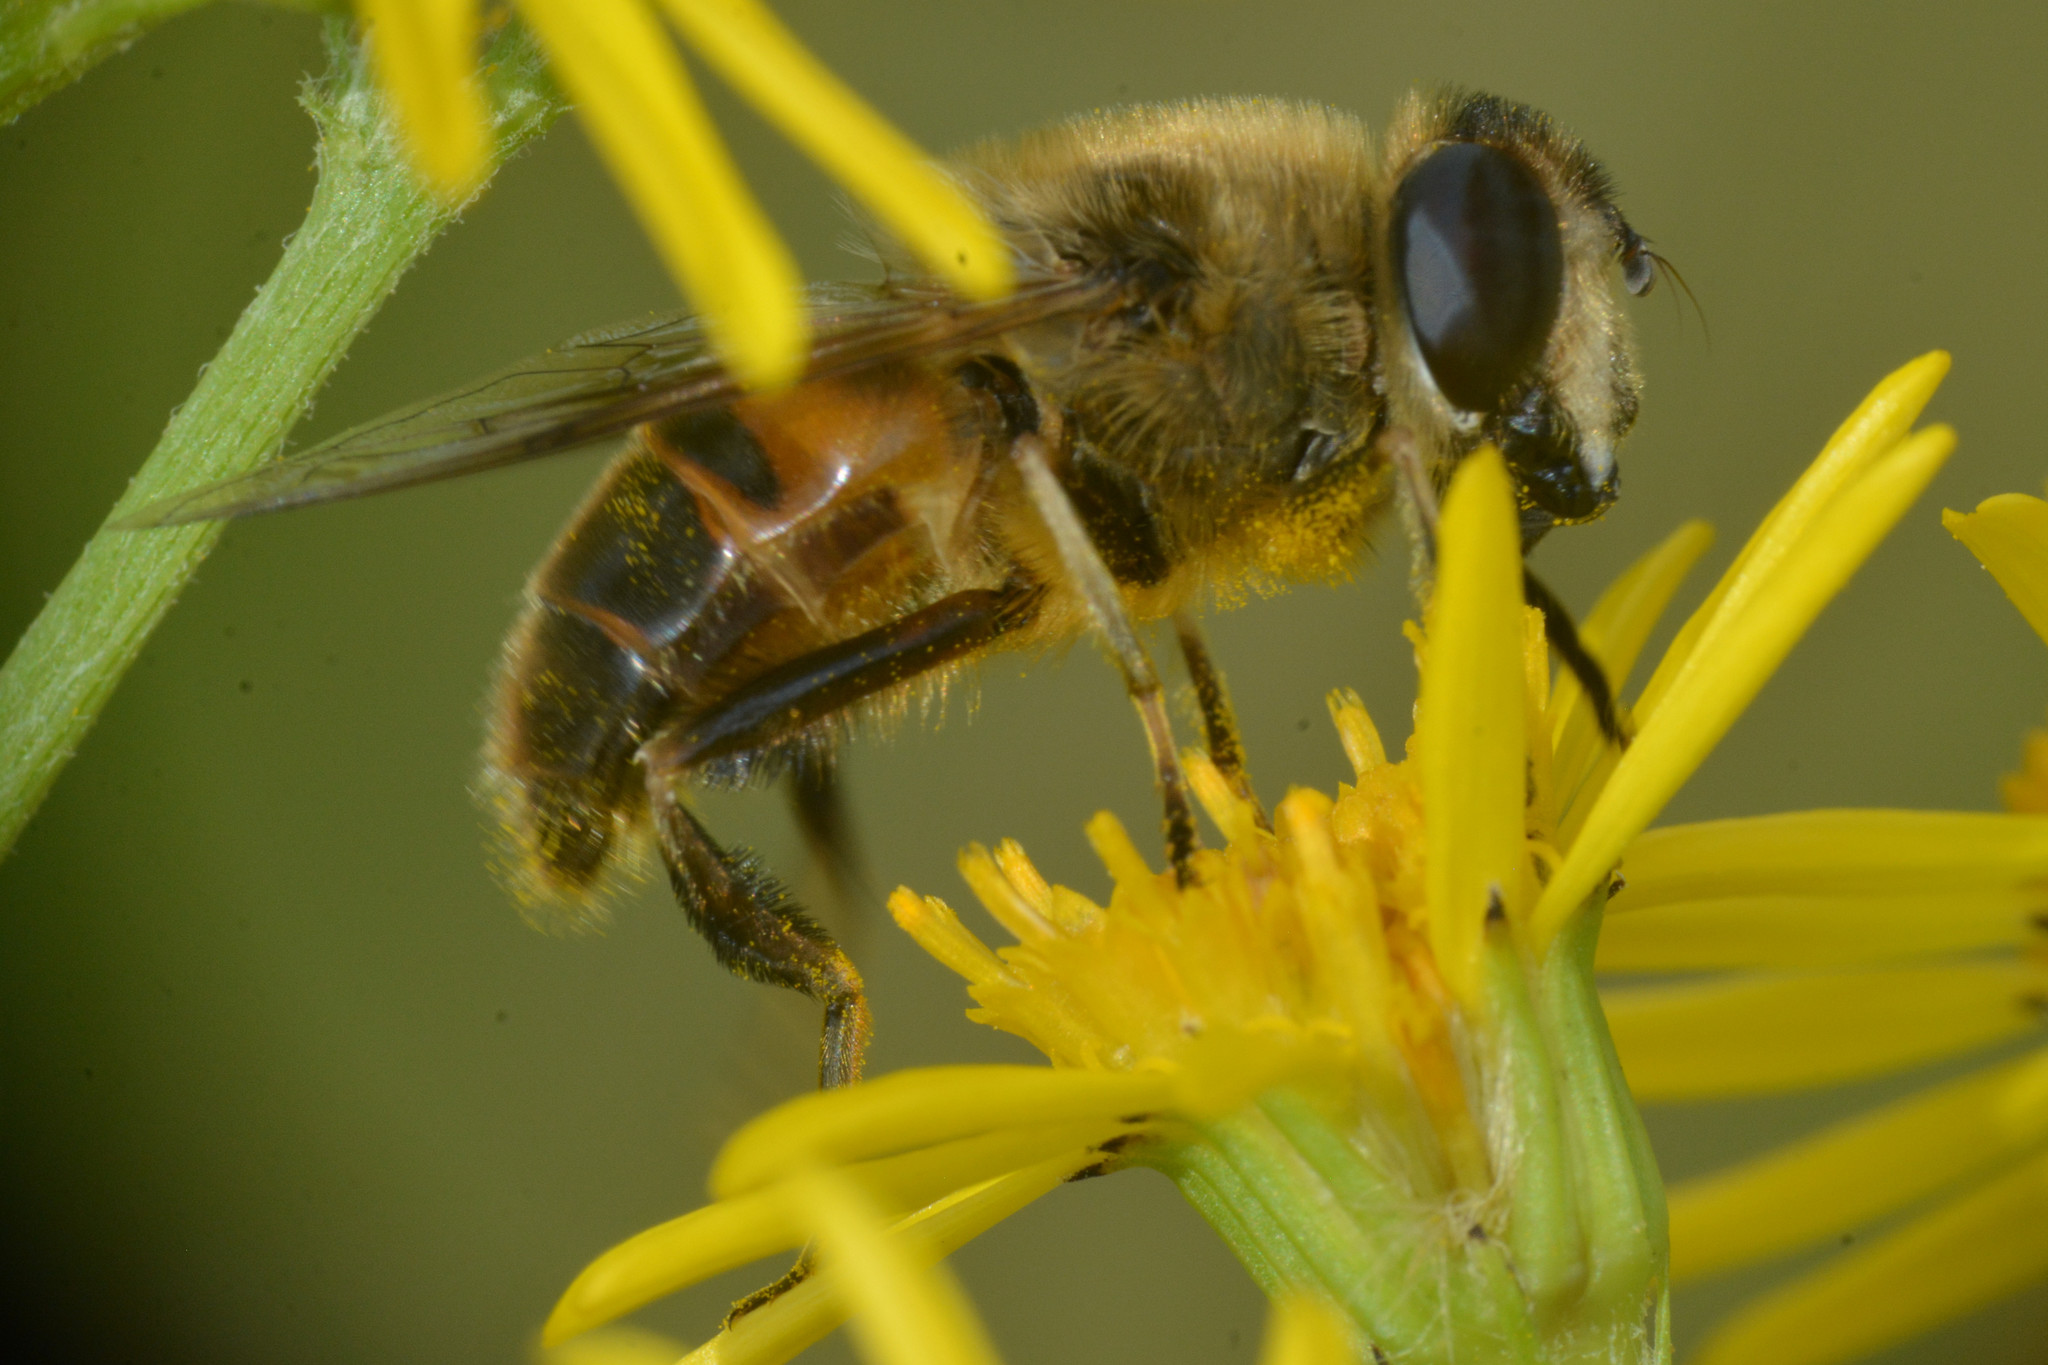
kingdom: Animalia
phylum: Arthropoda
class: Insecta
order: Diptera
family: Syrphidae
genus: Eristalis
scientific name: Eristalis tenax
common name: Drone fly
